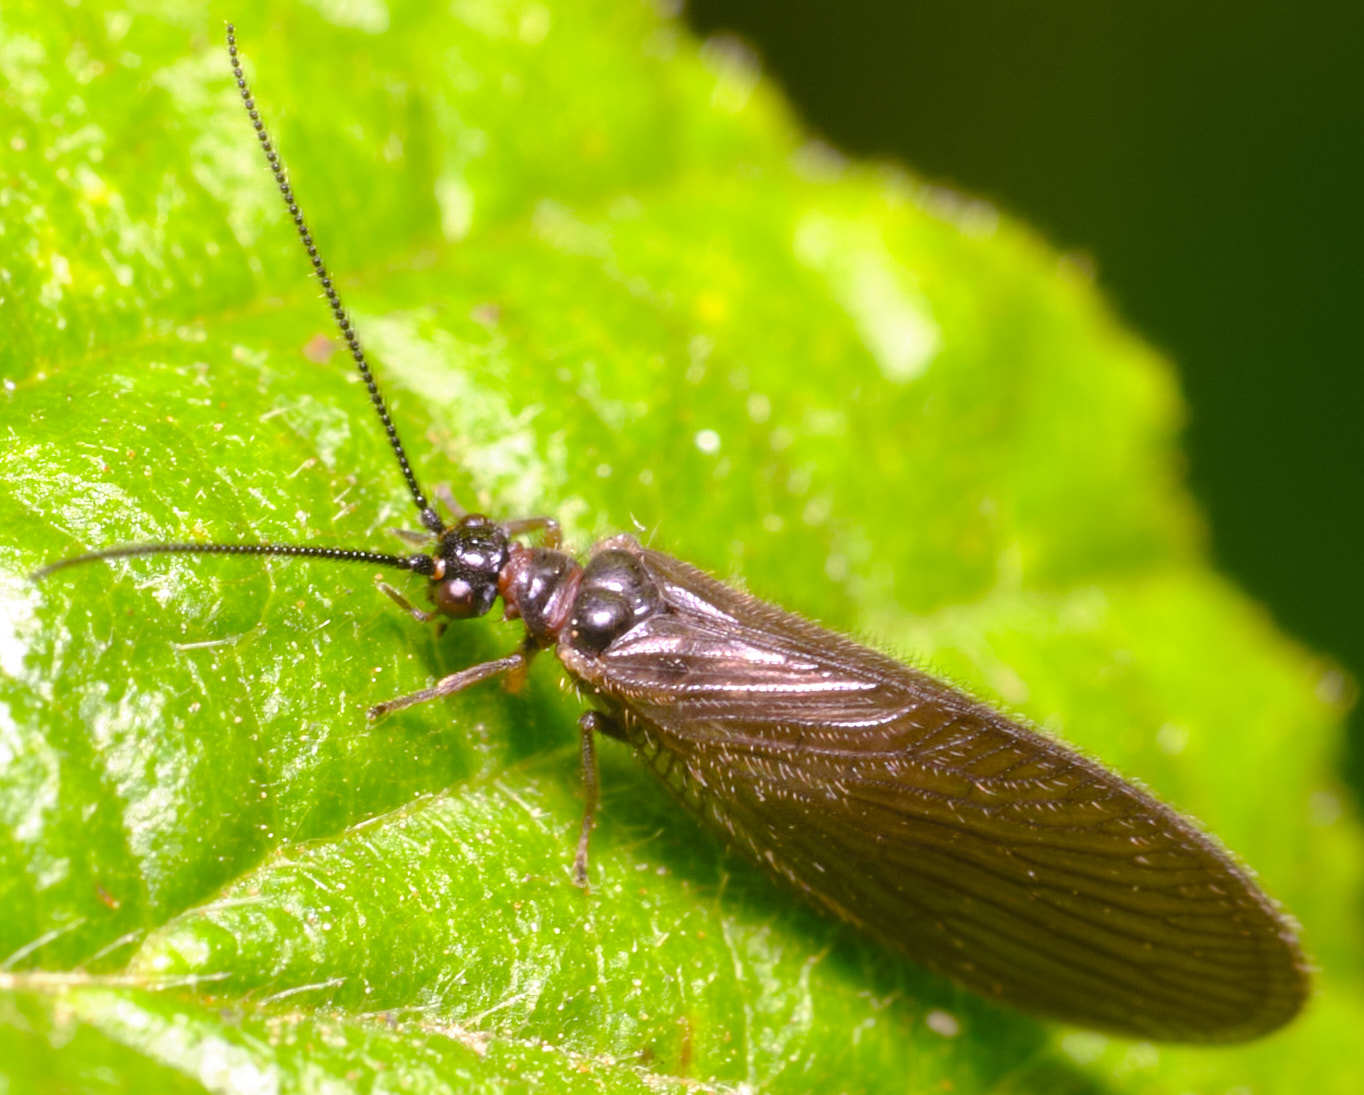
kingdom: Animalia
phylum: Arthropoda
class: Insecta
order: Neuroptera
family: Sisyridae
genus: Sisyra
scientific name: Sisyra nigra
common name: Black spongillafly
